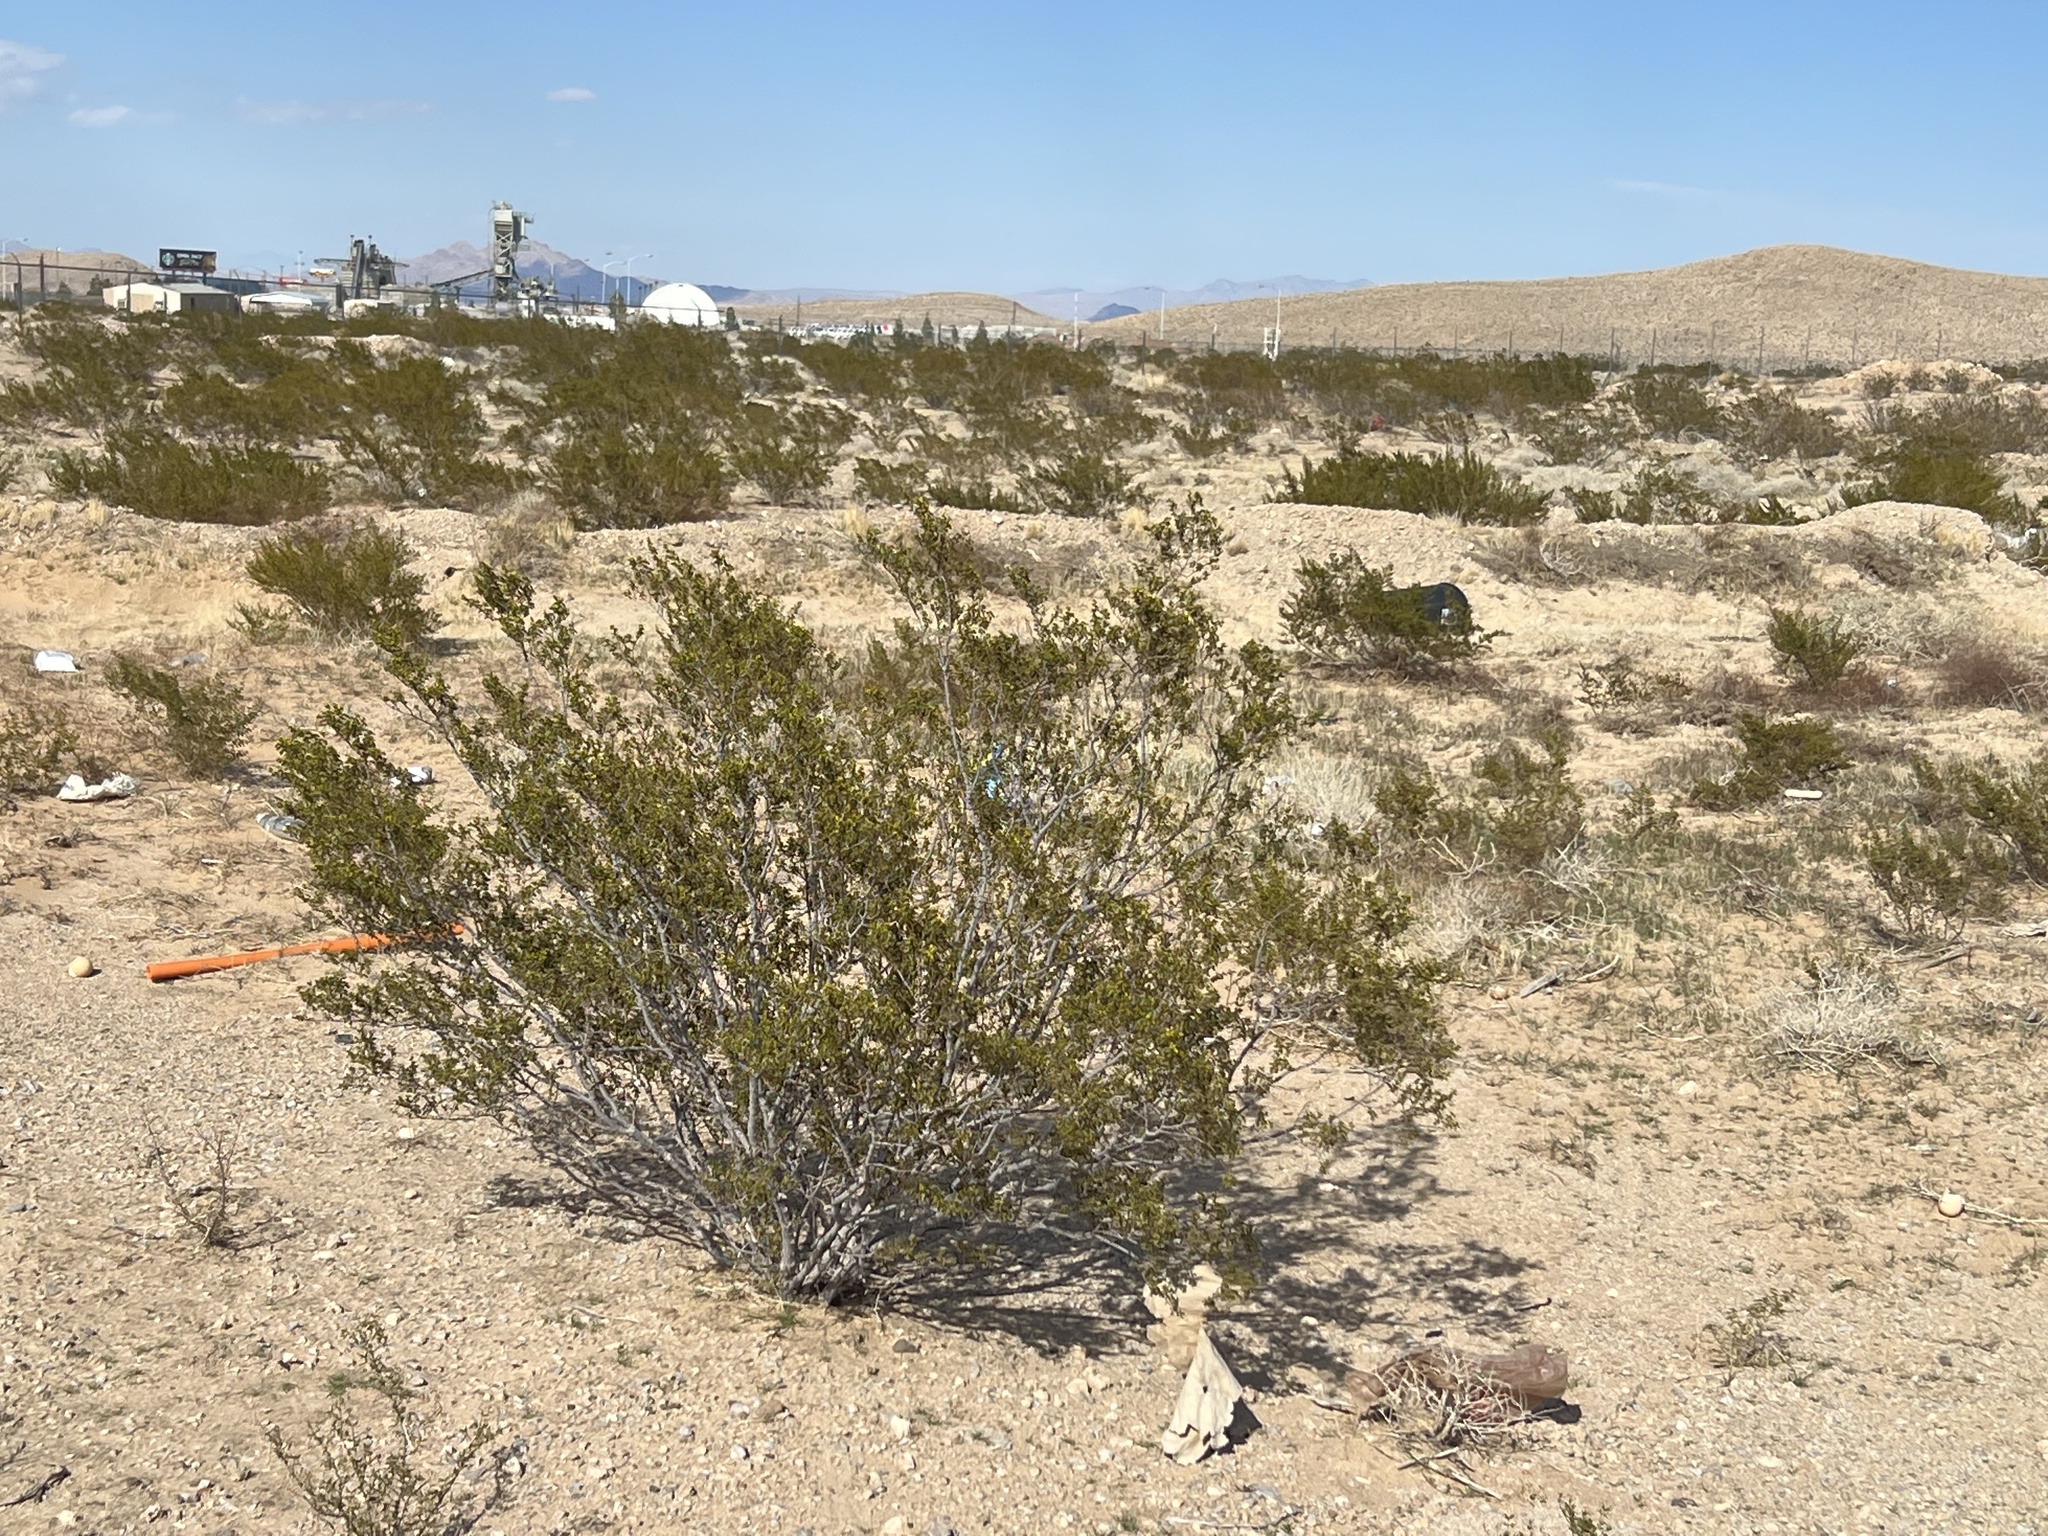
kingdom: Plantae
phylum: Tracheophyta
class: Magnoliopsida
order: Zygophyllales
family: Zygophyllaceae
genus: Larrea
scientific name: Larrea tridentata
